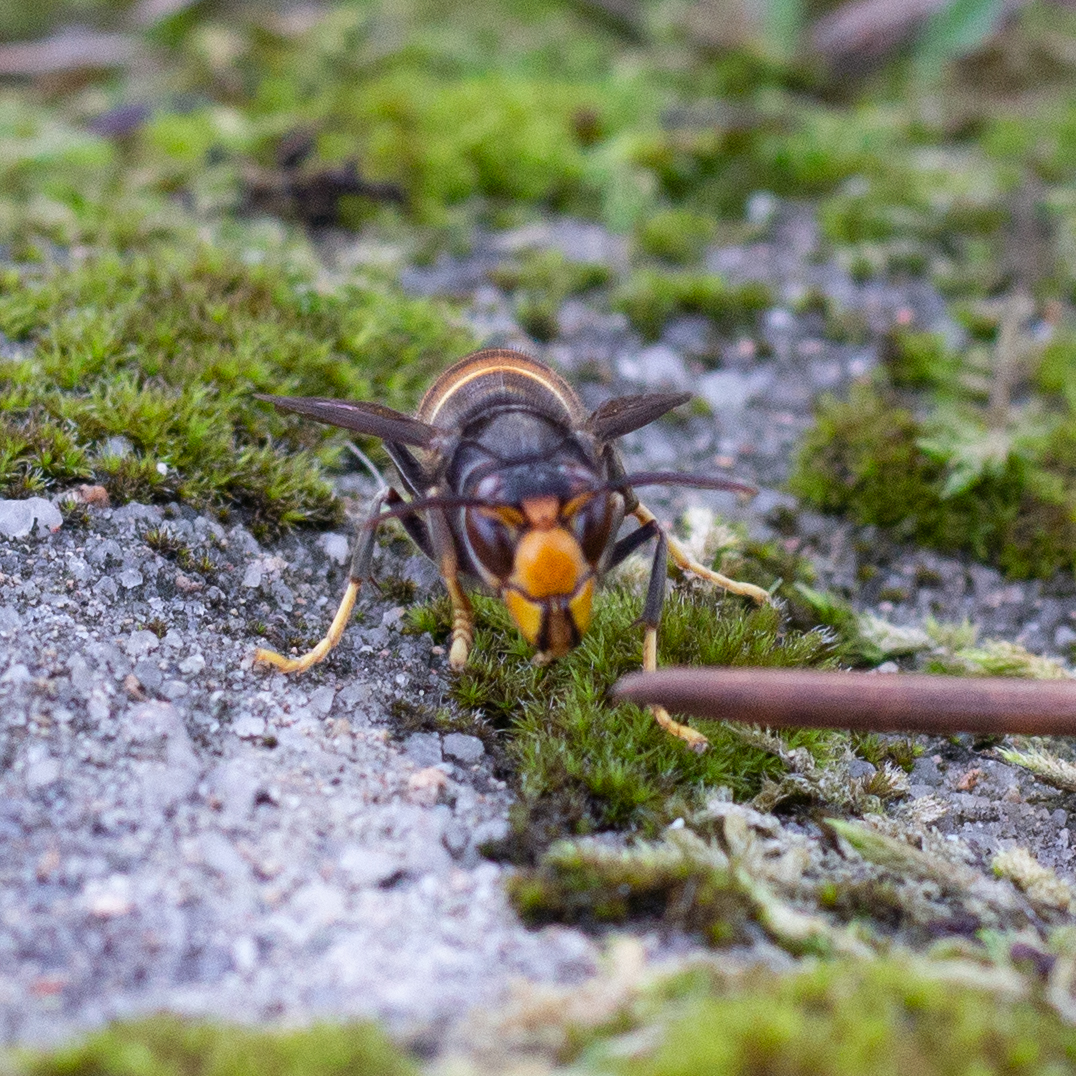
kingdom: Animalia
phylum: Arthropoda
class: Insecta
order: Hymenoptera
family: Vespidae
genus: Vespa
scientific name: Vespa velutina
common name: Asian hornet
